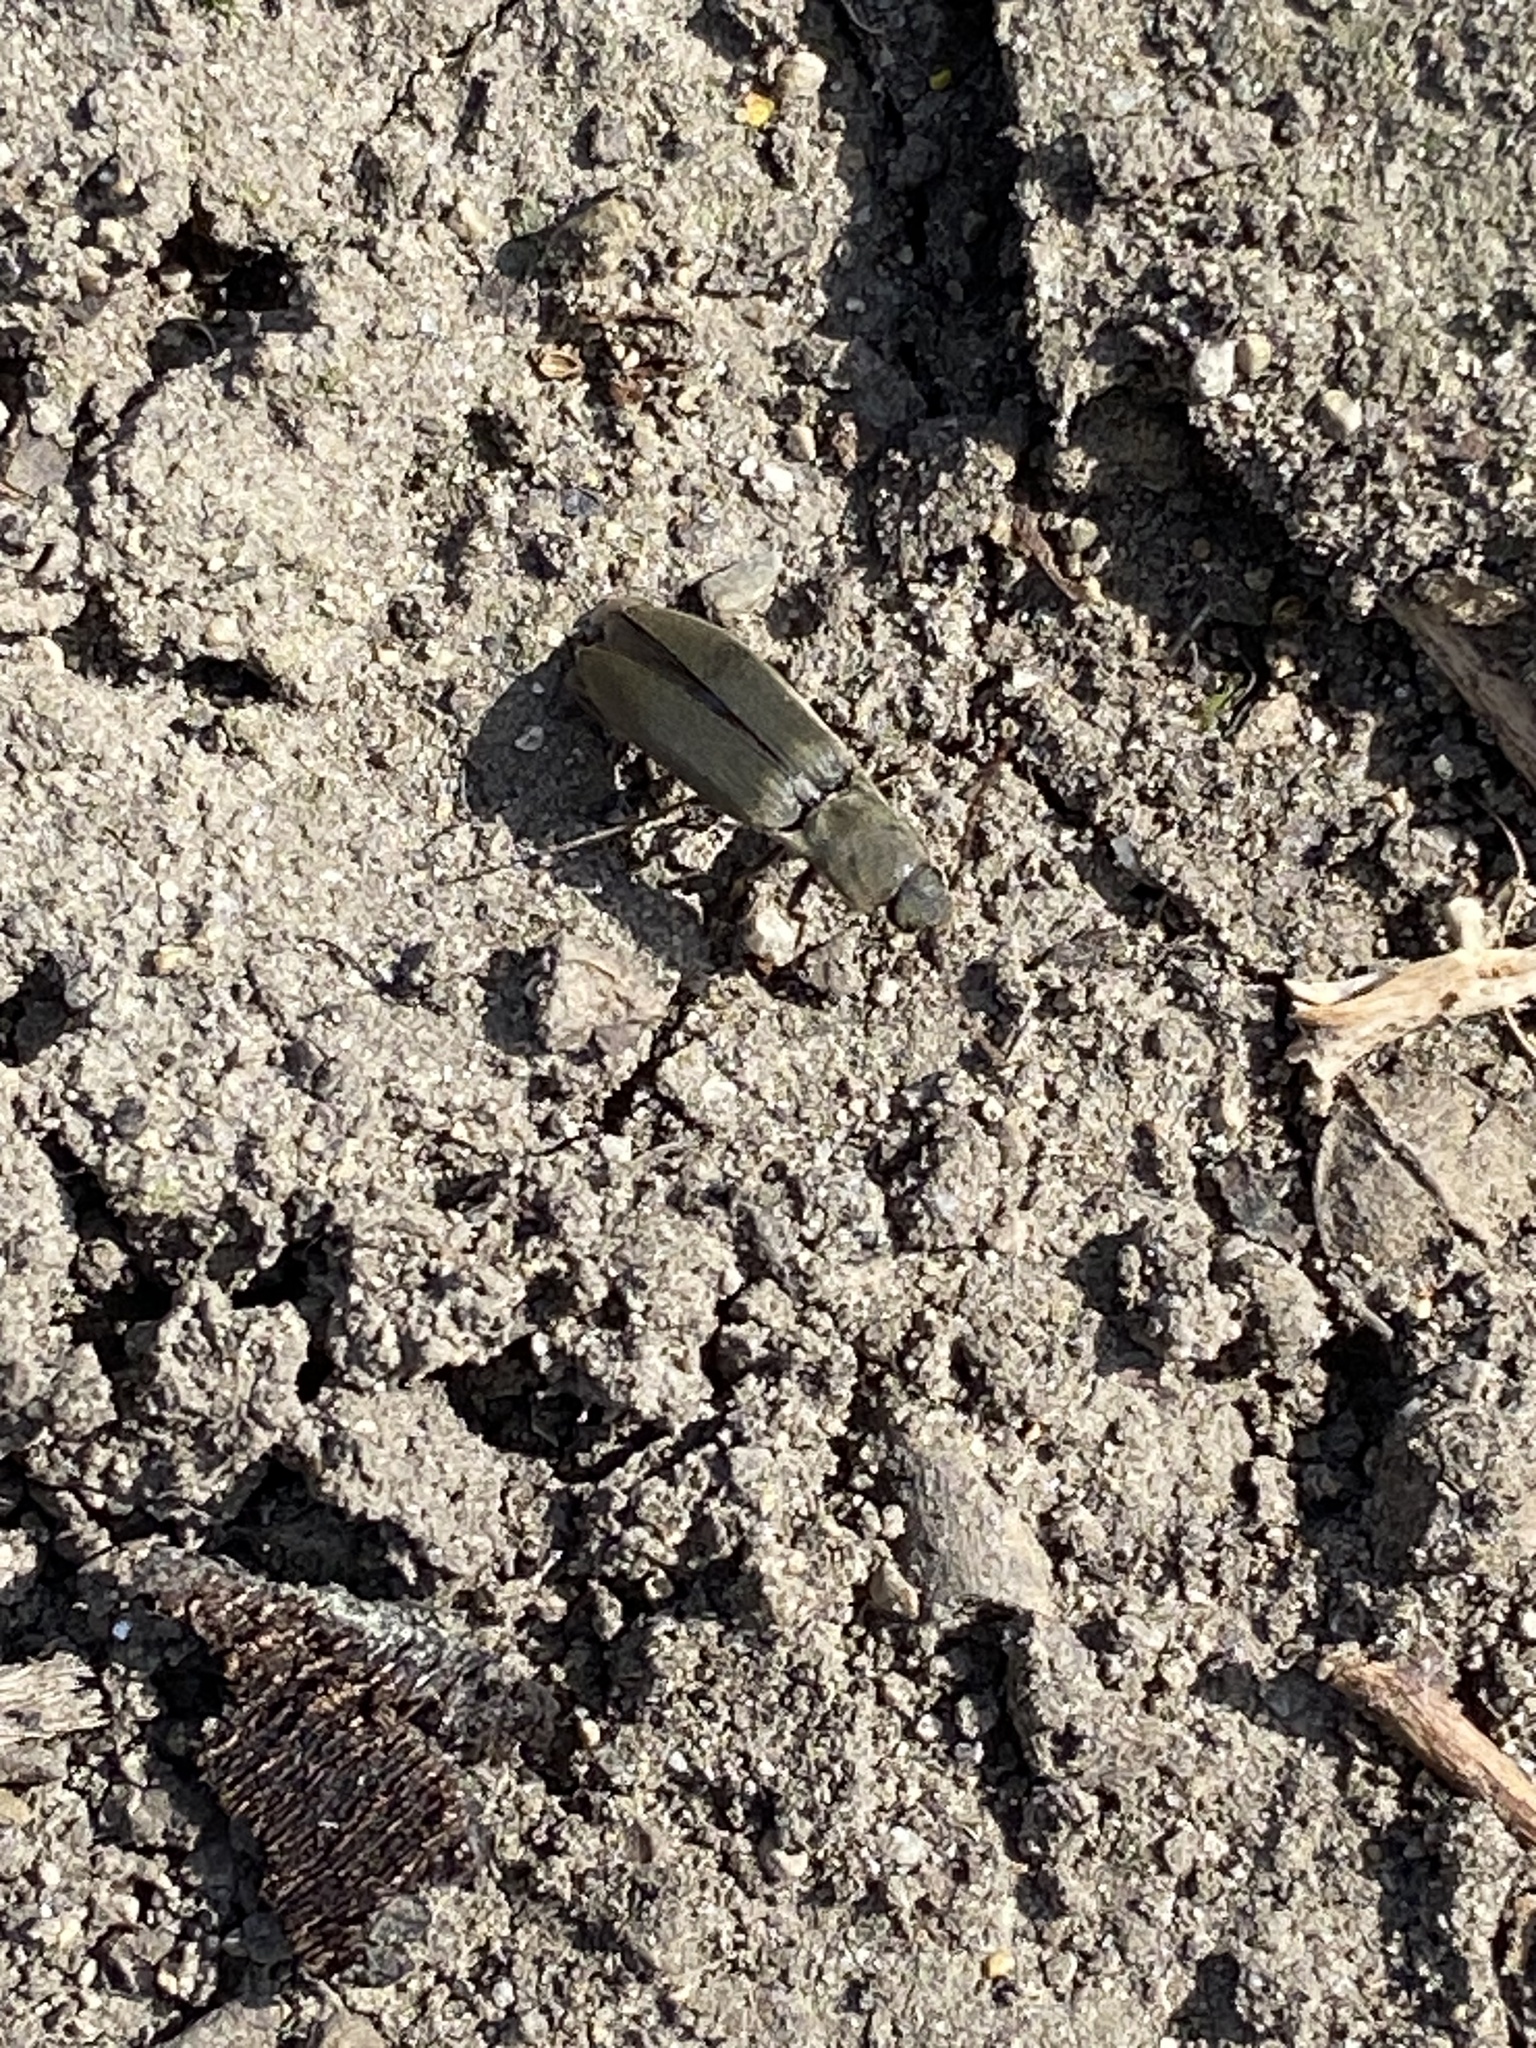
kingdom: Animalia
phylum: Arthropoda
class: Insecta
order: Coleoptera
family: Elateridae
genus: Agriotes
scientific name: Agriotes pilosellus
